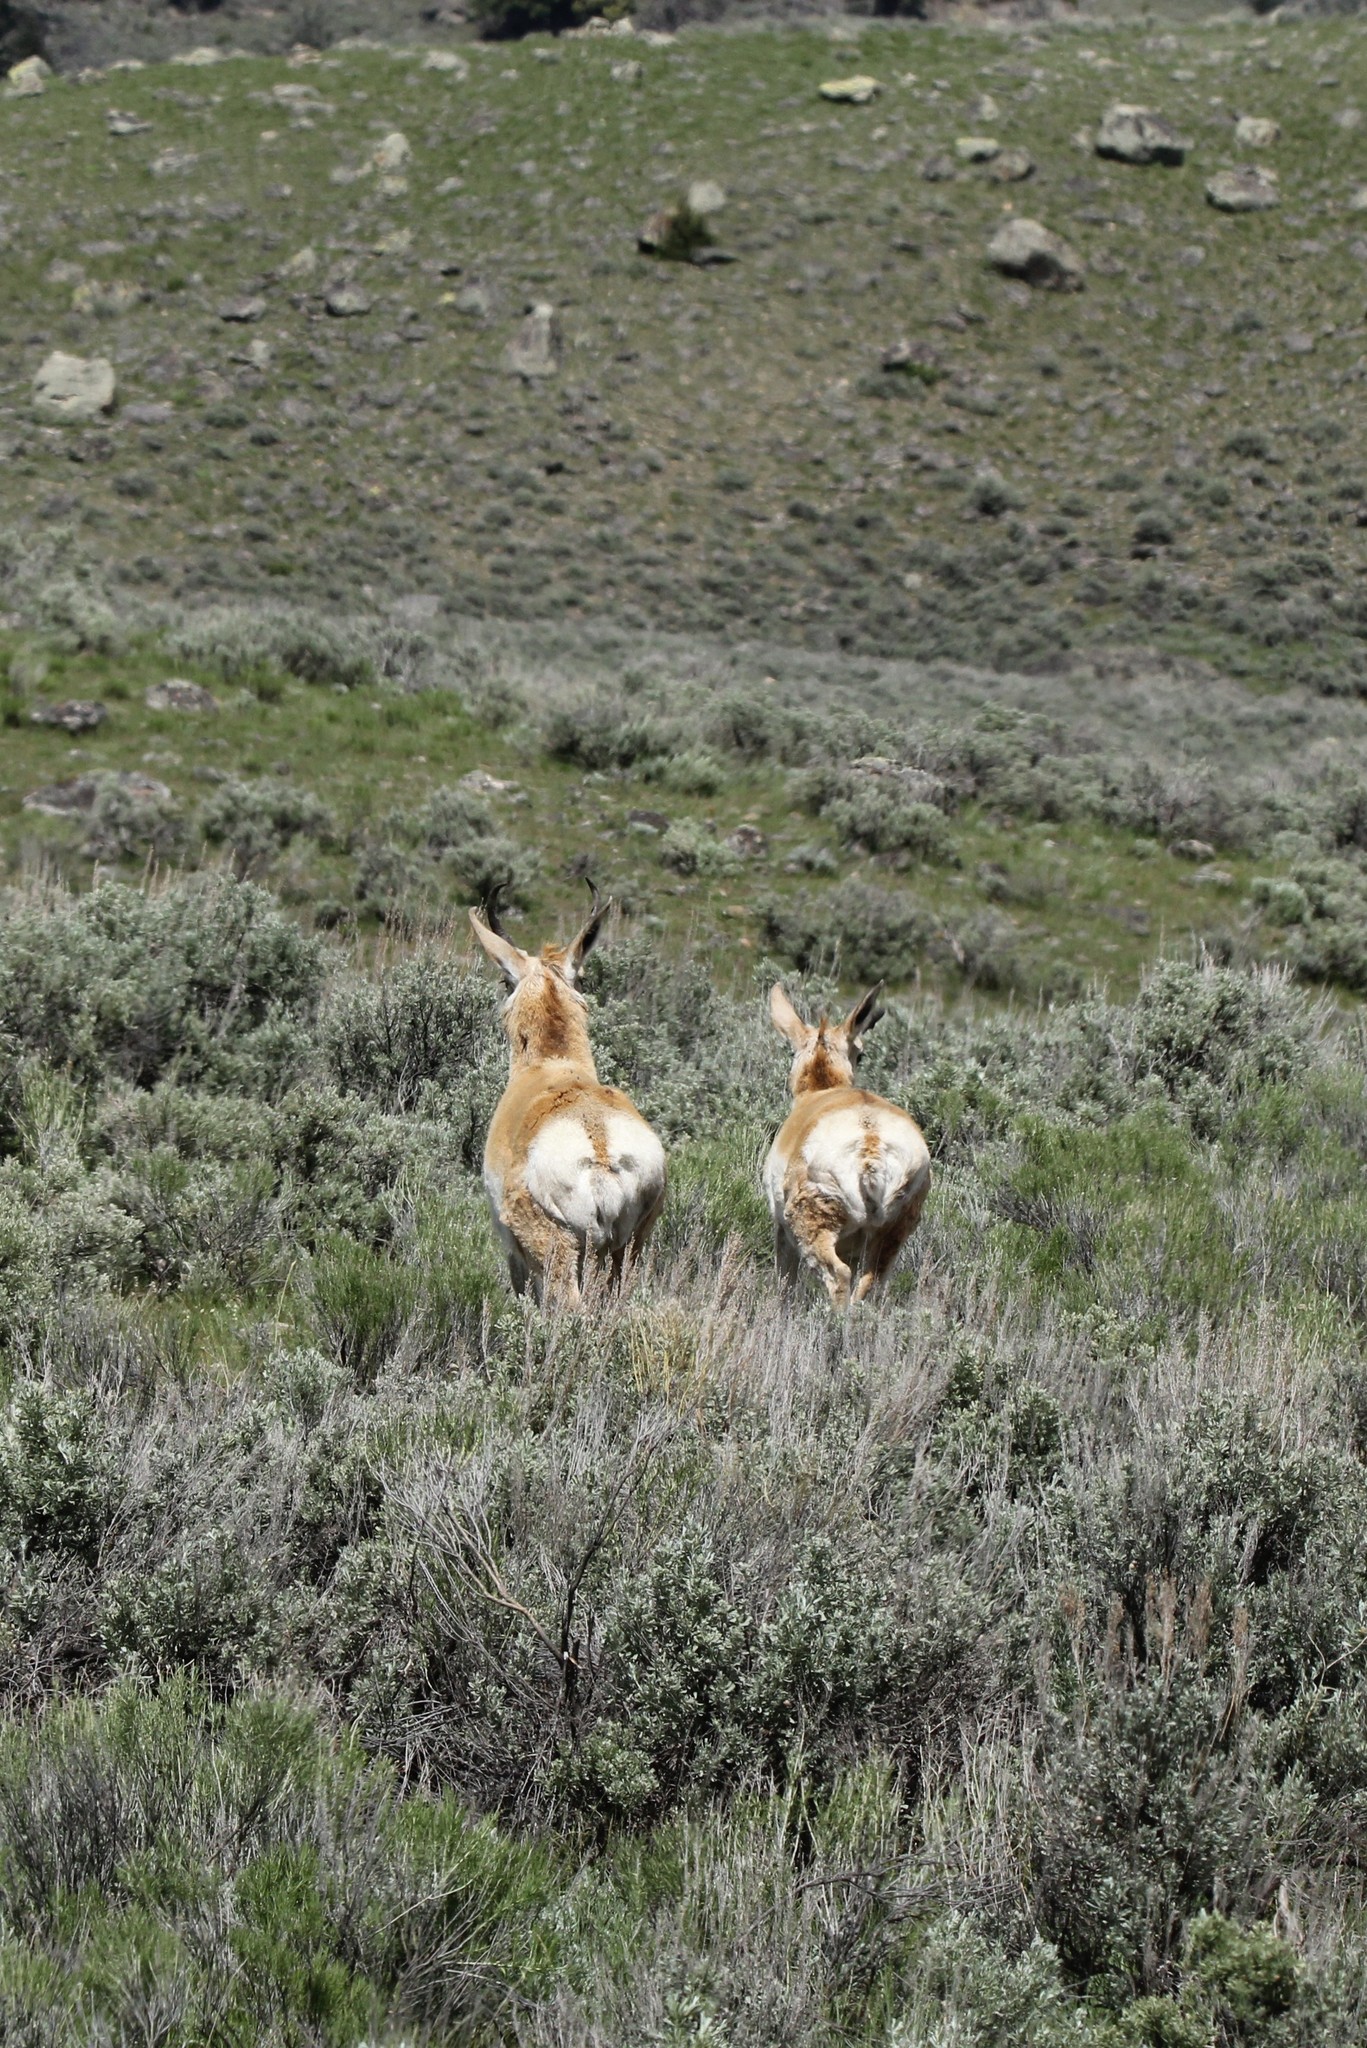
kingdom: Animalia
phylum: Chordata
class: Mammalia
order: Artiodactyla
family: Antilocapridae
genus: Antilocapra
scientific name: Antilocapra americana
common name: Pronghorn
